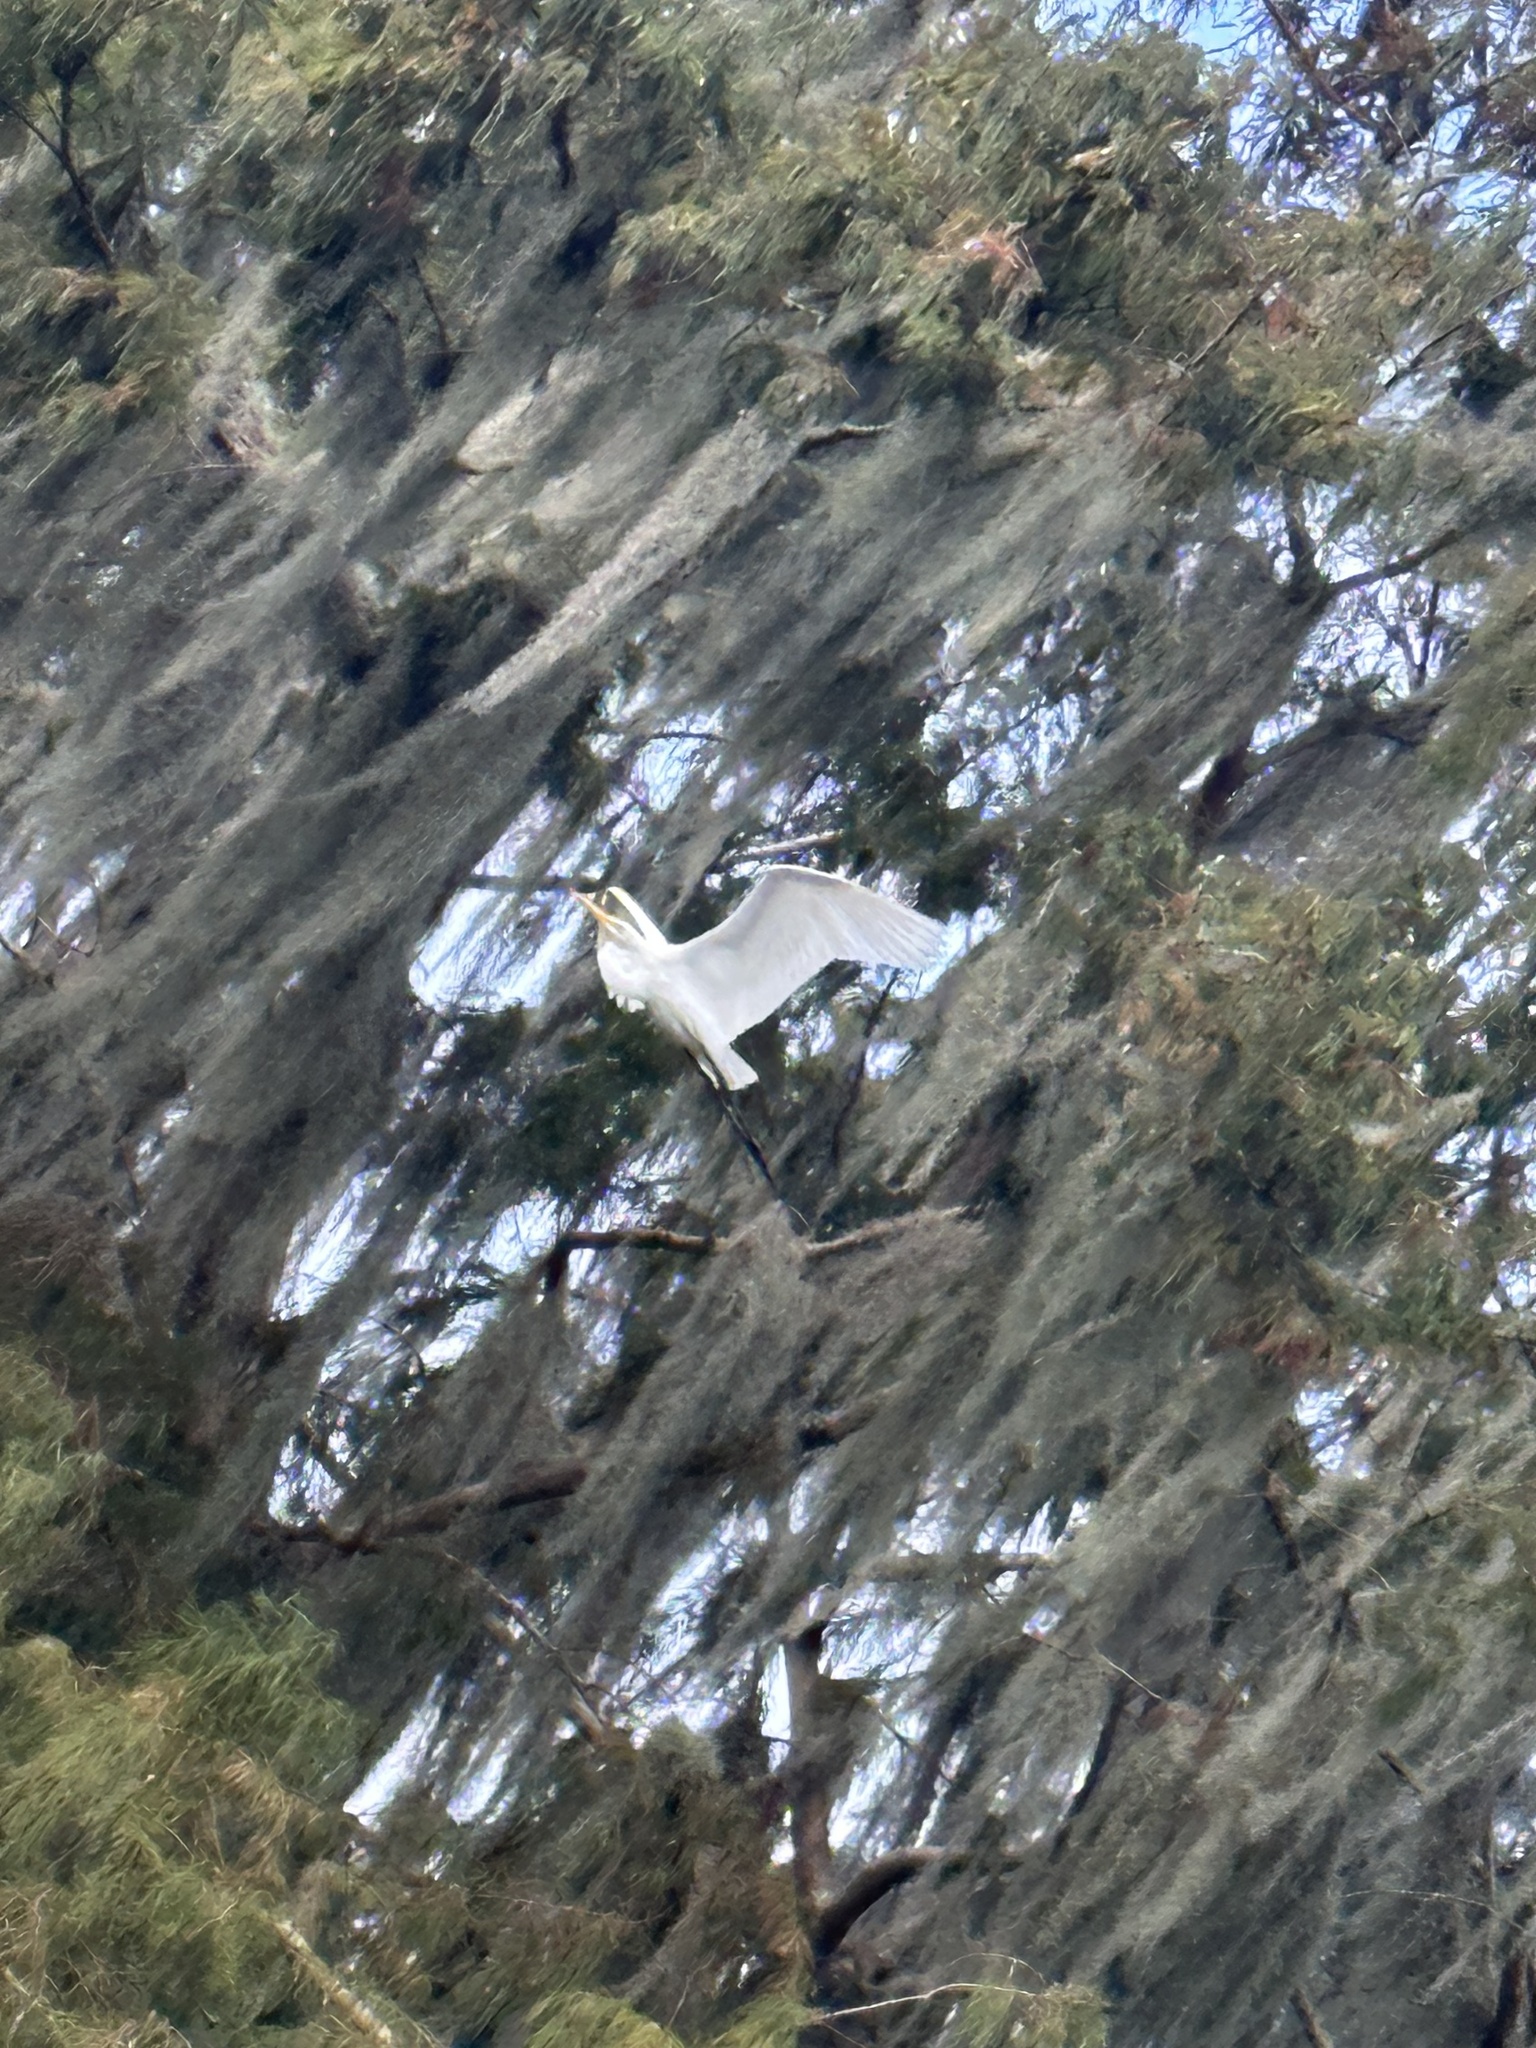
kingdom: Animalia
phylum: Chordata
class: Aves
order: Pelecaniformes
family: Ardeidae
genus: Ardea
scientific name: Ardea alba
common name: Great egret
